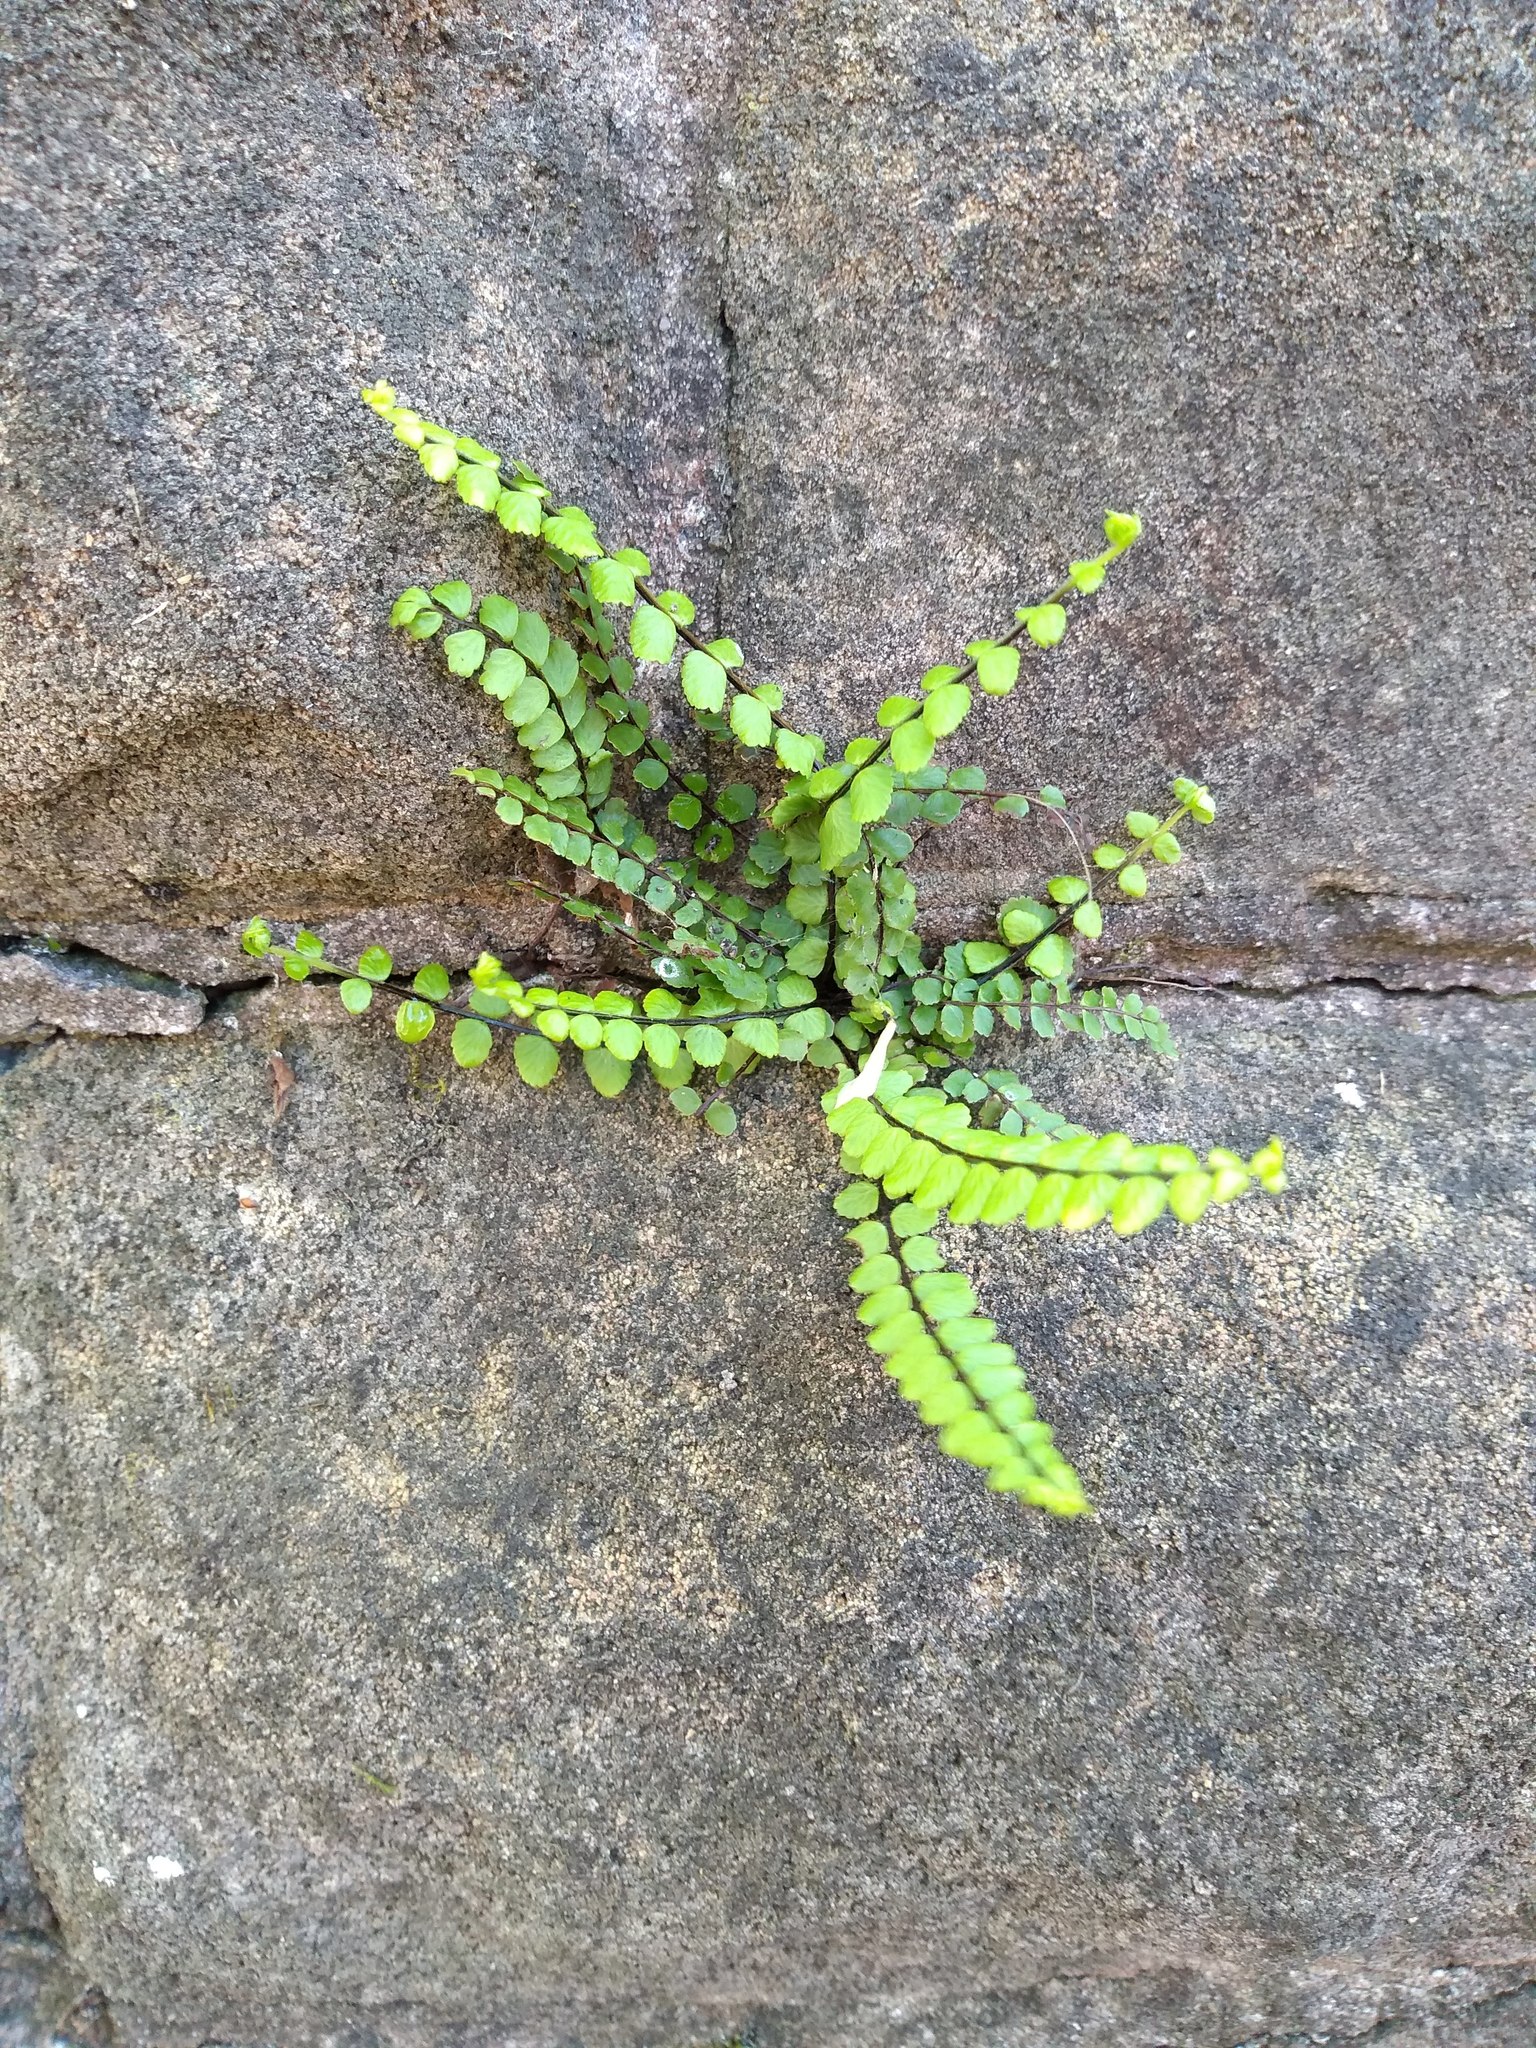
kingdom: Plantae
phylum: Tracheophyta
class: Polypodiopsida
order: Polypodiales
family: Aspleniaceae
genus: Asplenium
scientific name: Asplenium trichomanes
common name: Maidenhair spleenwort
